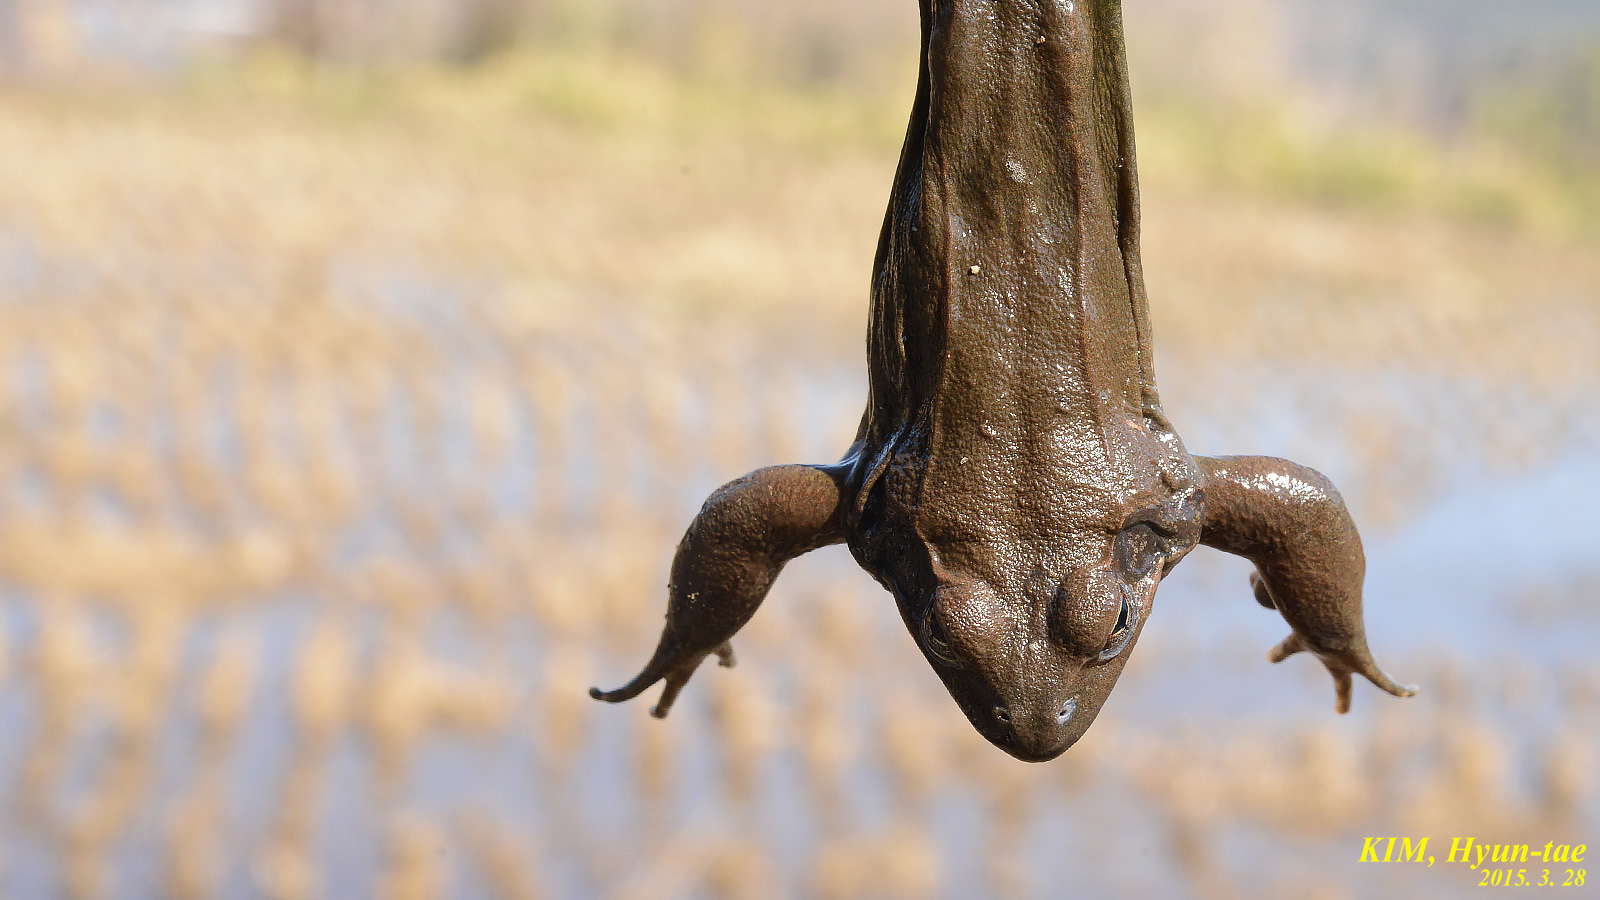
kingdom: Animalia
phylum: Chordata
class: Amphibia
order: Anura
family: Ranidae
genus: Rana
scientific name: Rana uenoi
